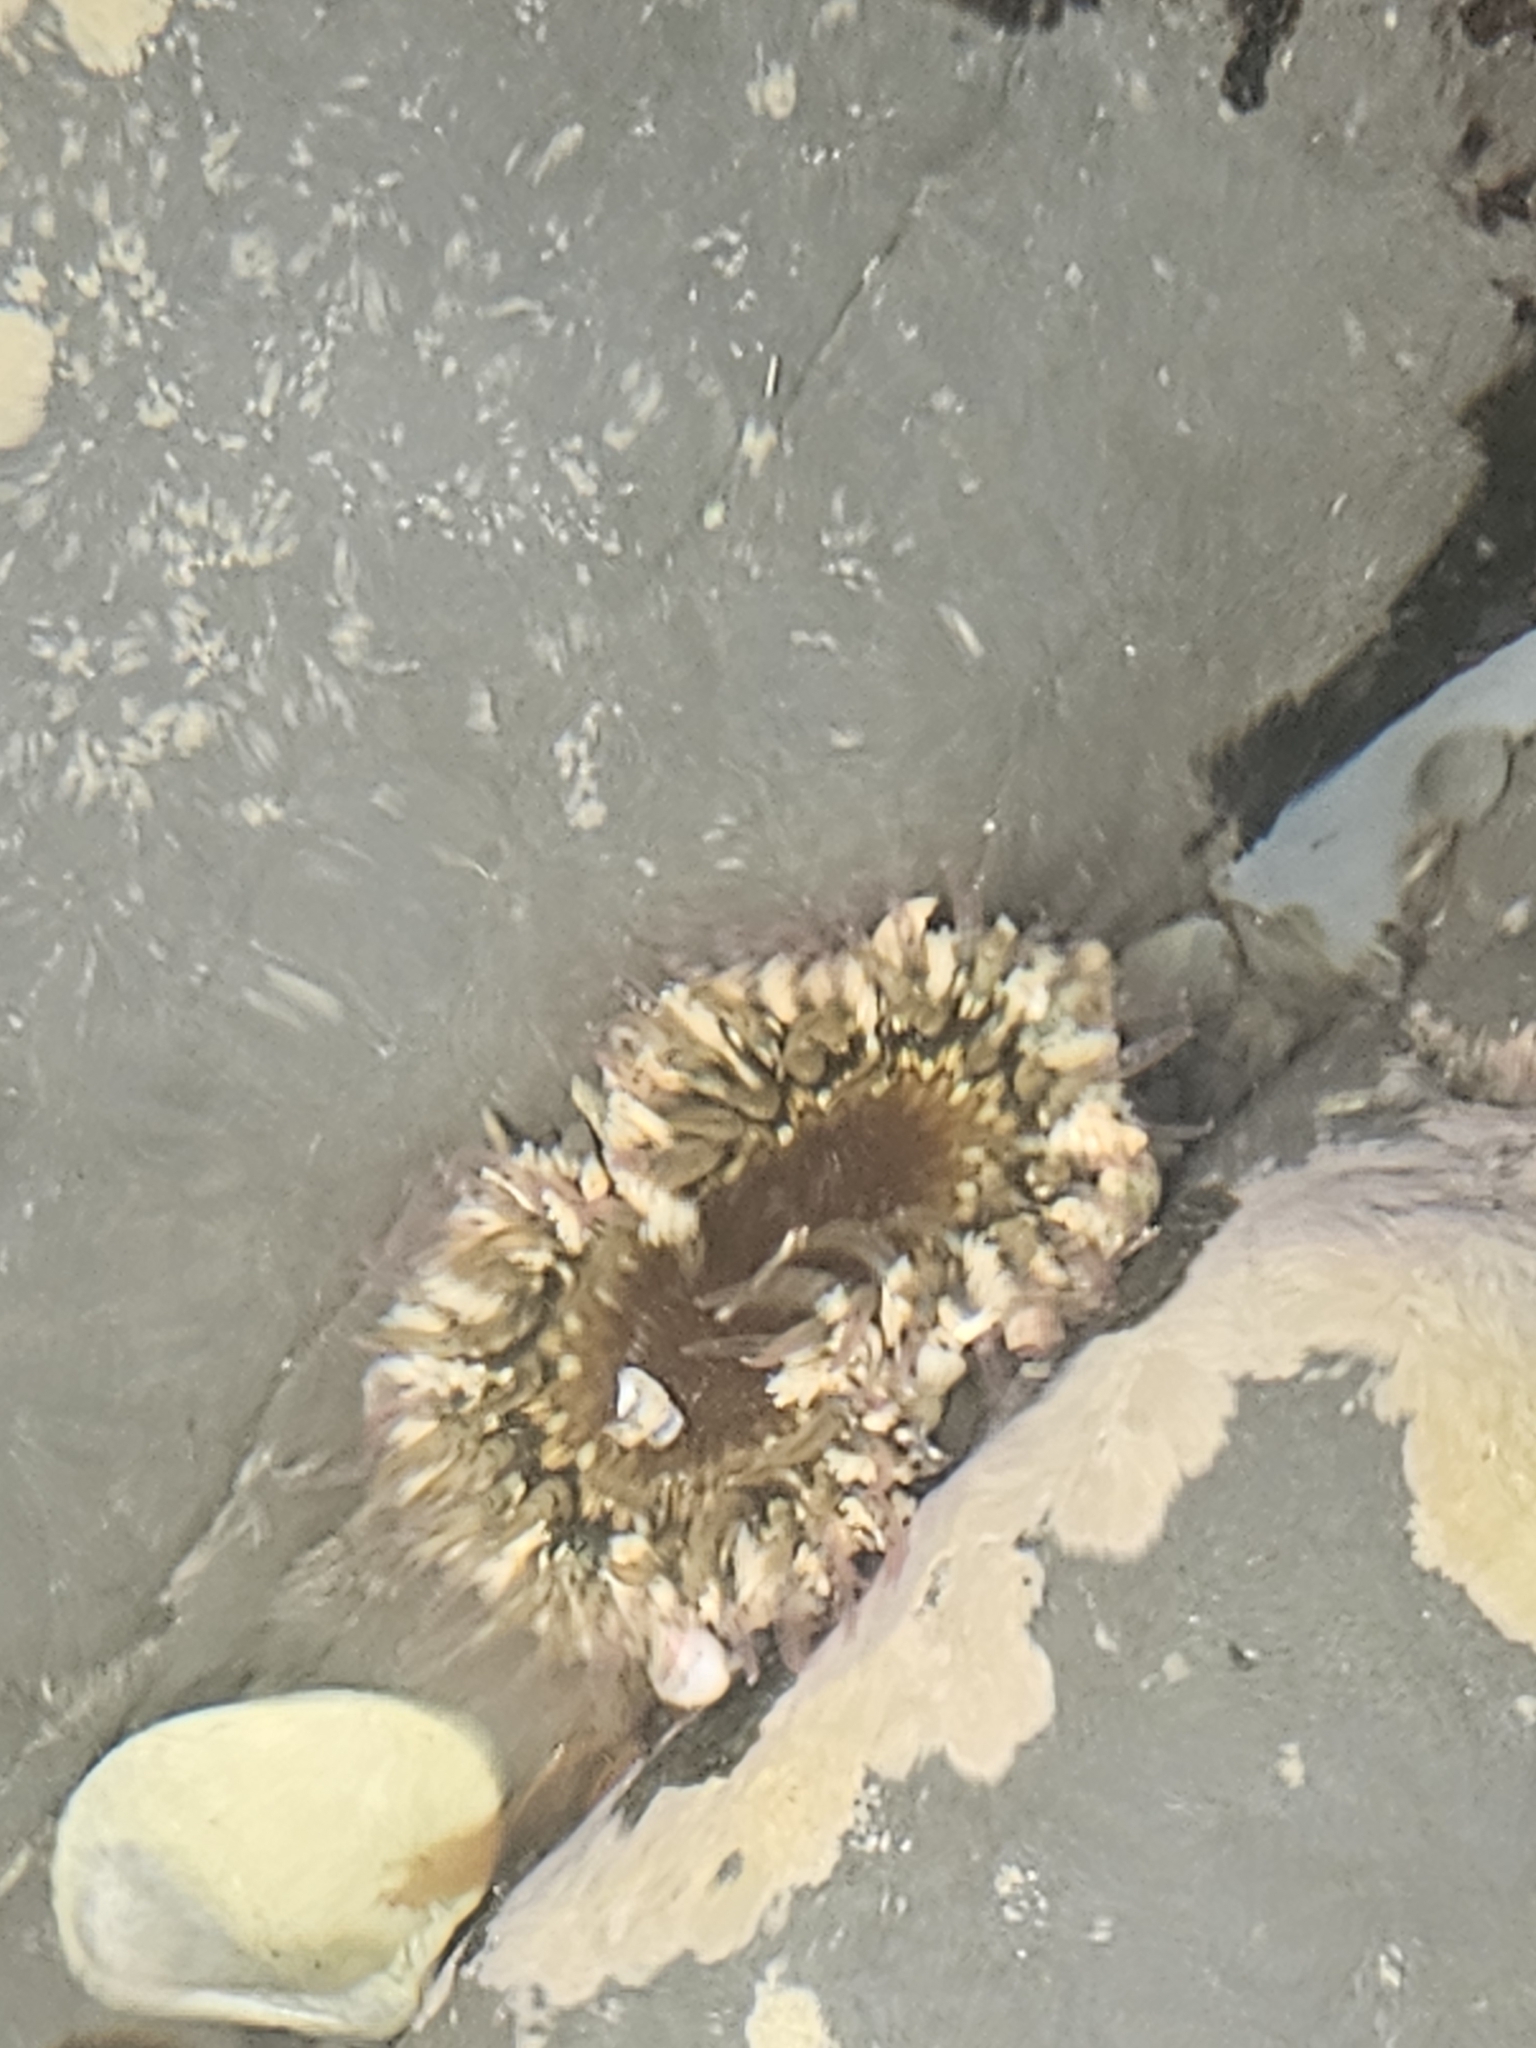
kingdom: Animalia
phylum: Cnidaria
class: Anthozoa
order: Actiniaria
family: Actiniidae
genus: Oulactis
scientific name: Oulactis muscosa
